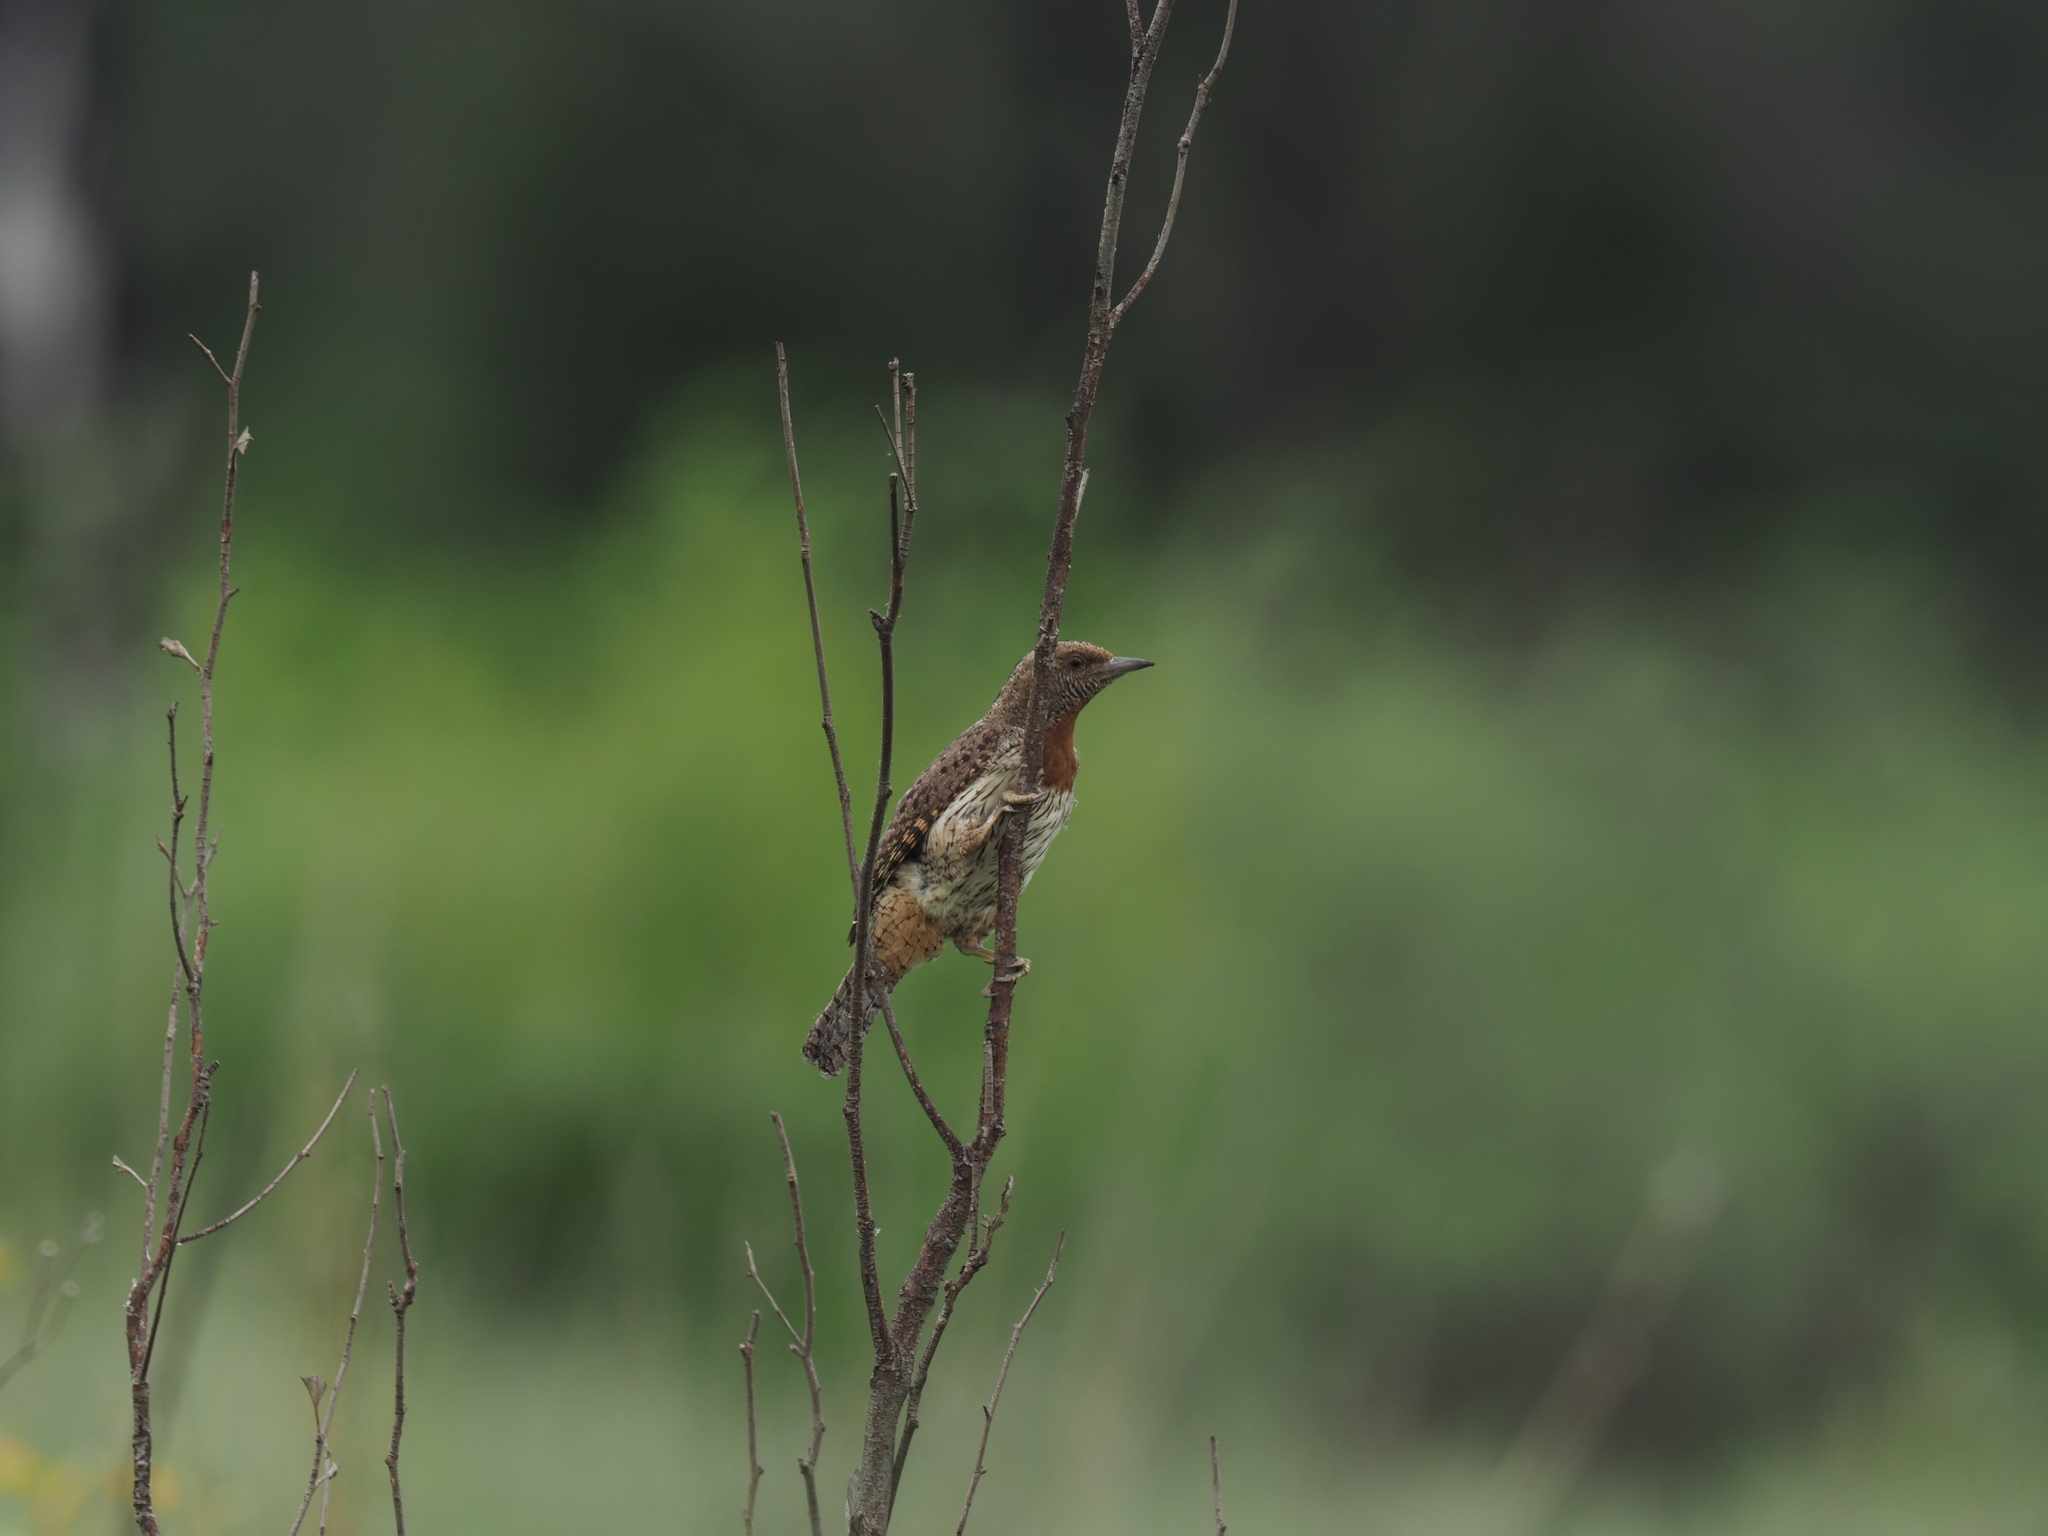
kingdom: Animalia
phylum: Chordata
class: Aves
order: Piciformes
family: Picidae
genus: Jynx
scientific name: Jynx ruficollis
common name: Red-throated wryneck
